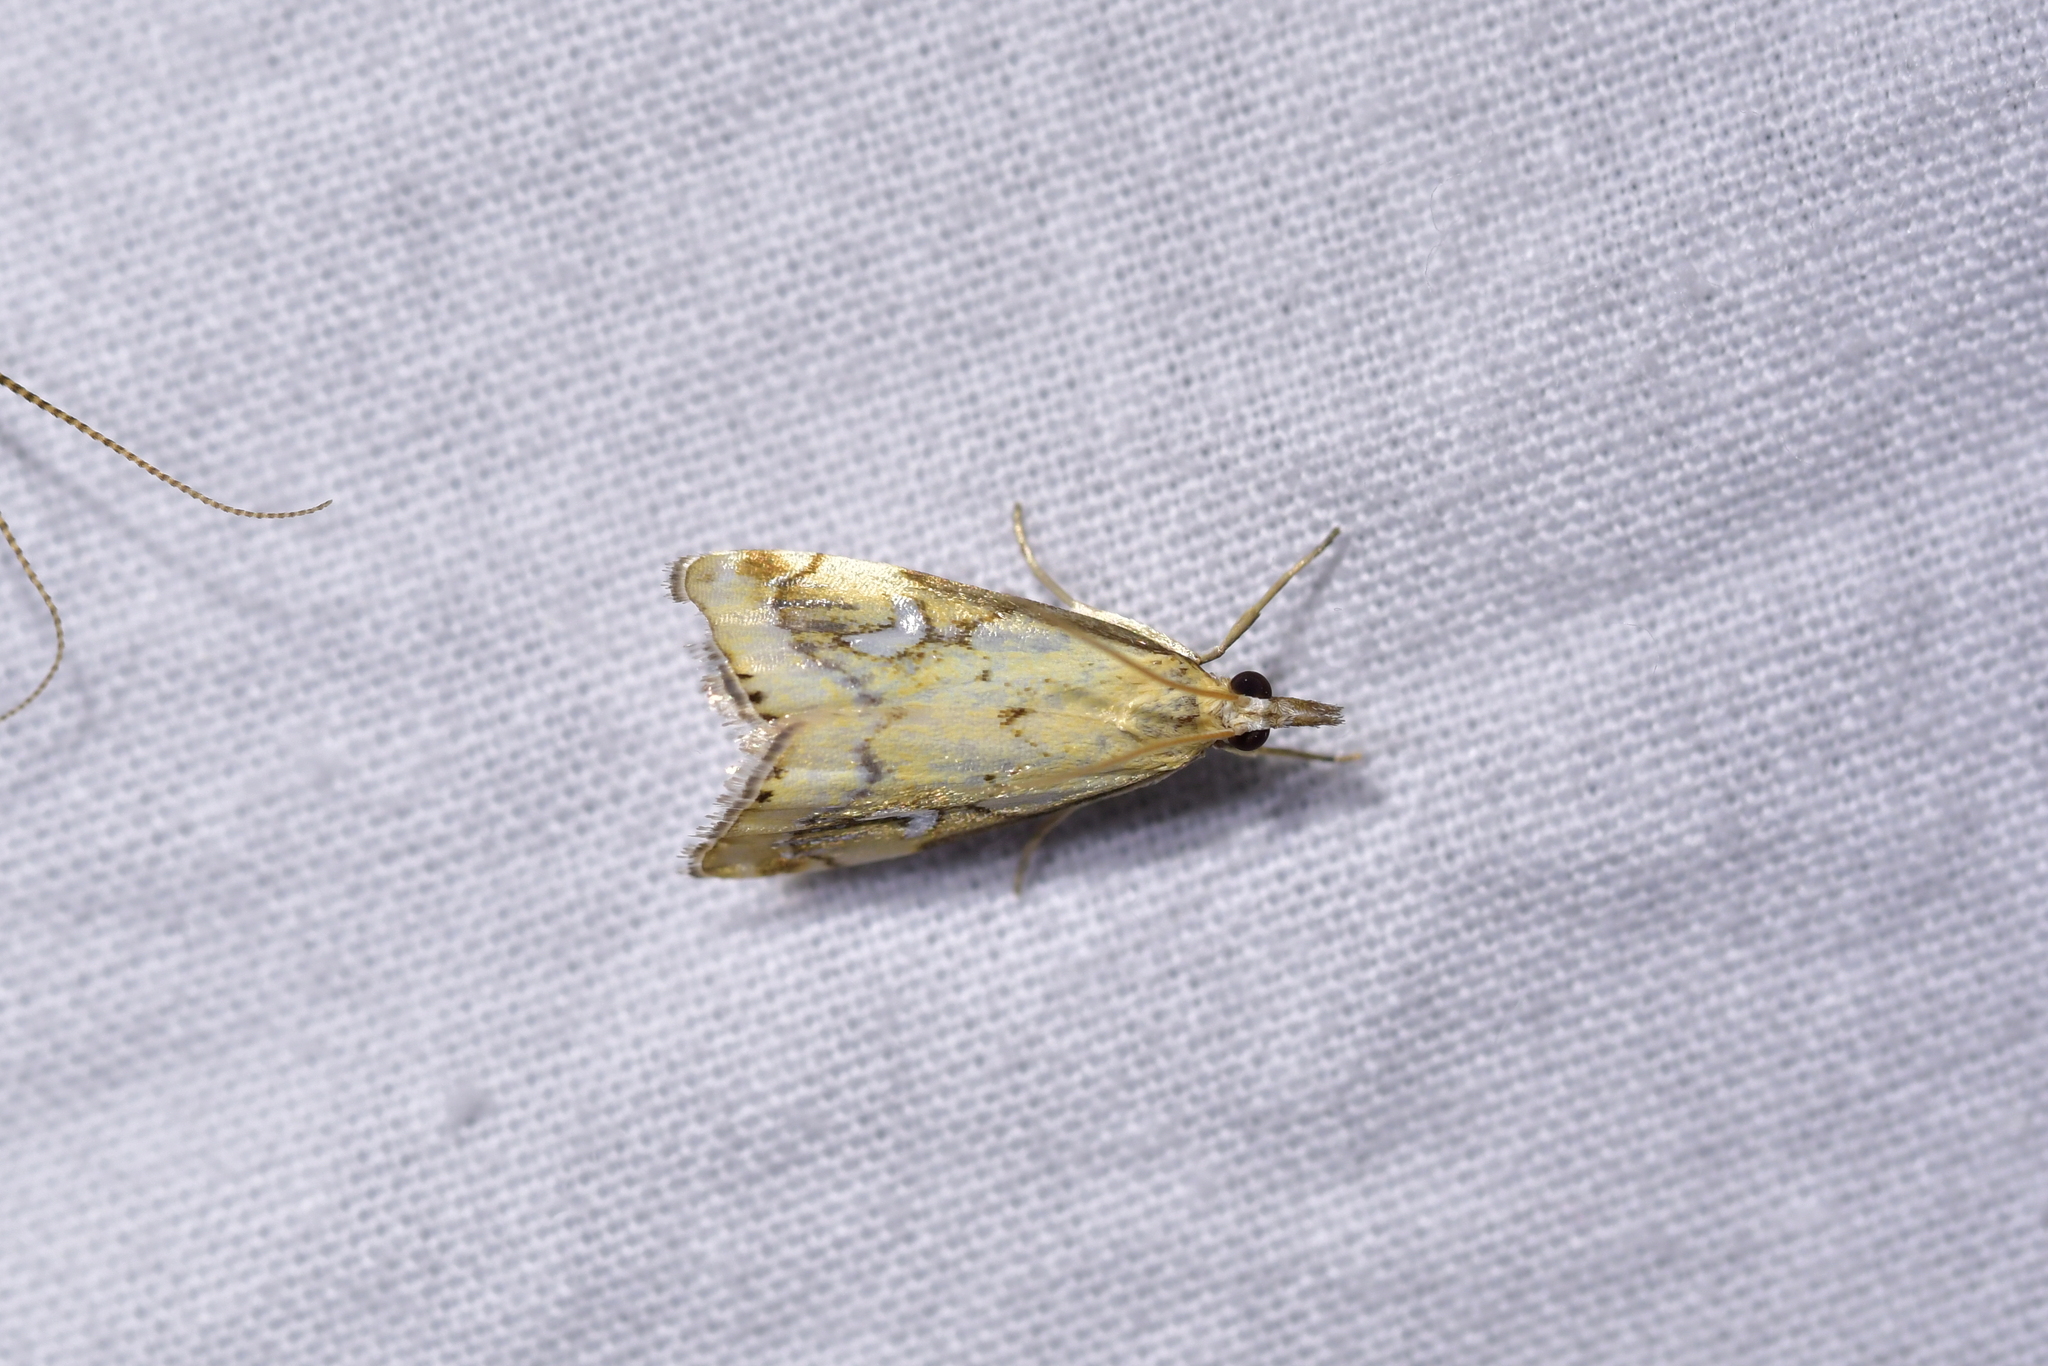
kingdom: Animalia
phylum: Arthropoda
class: Insecta
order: Lepidoptera
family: Crambidae
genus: Glaucocharis
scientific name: Glaucocharis lepidella
